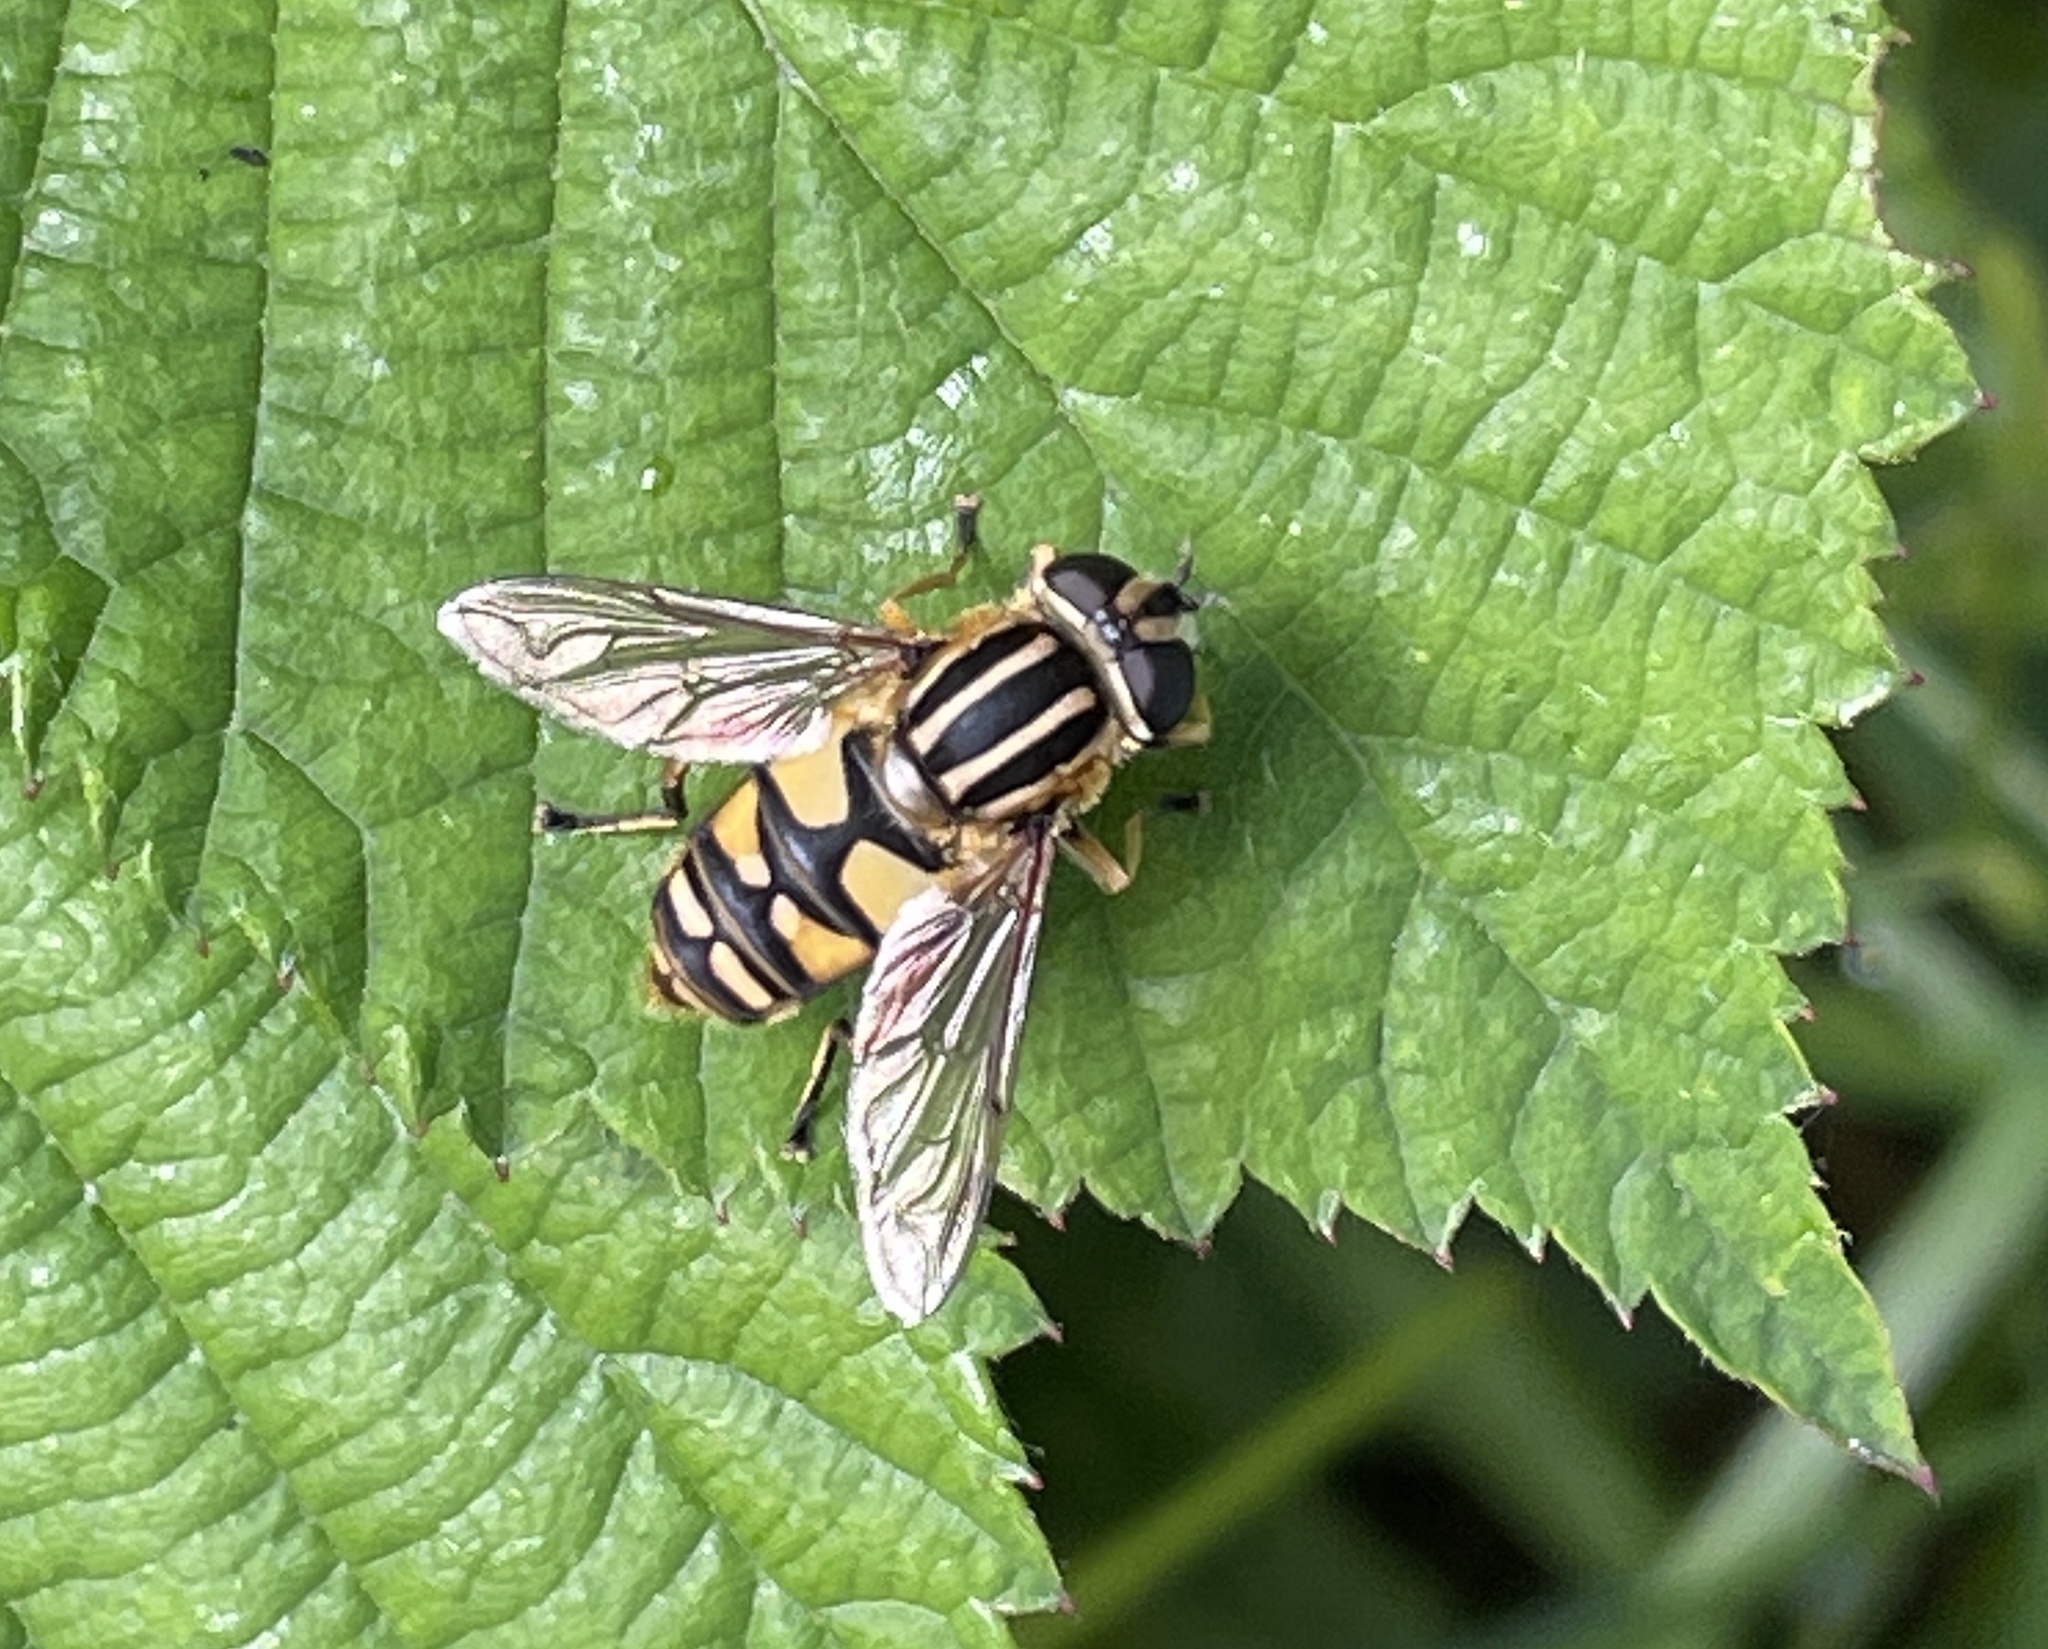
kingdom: Animalia
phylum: Arthropoda
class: Insecta
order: Diptera
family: Syrphidae
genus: Helophilus
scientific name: Helophilus pendulus
